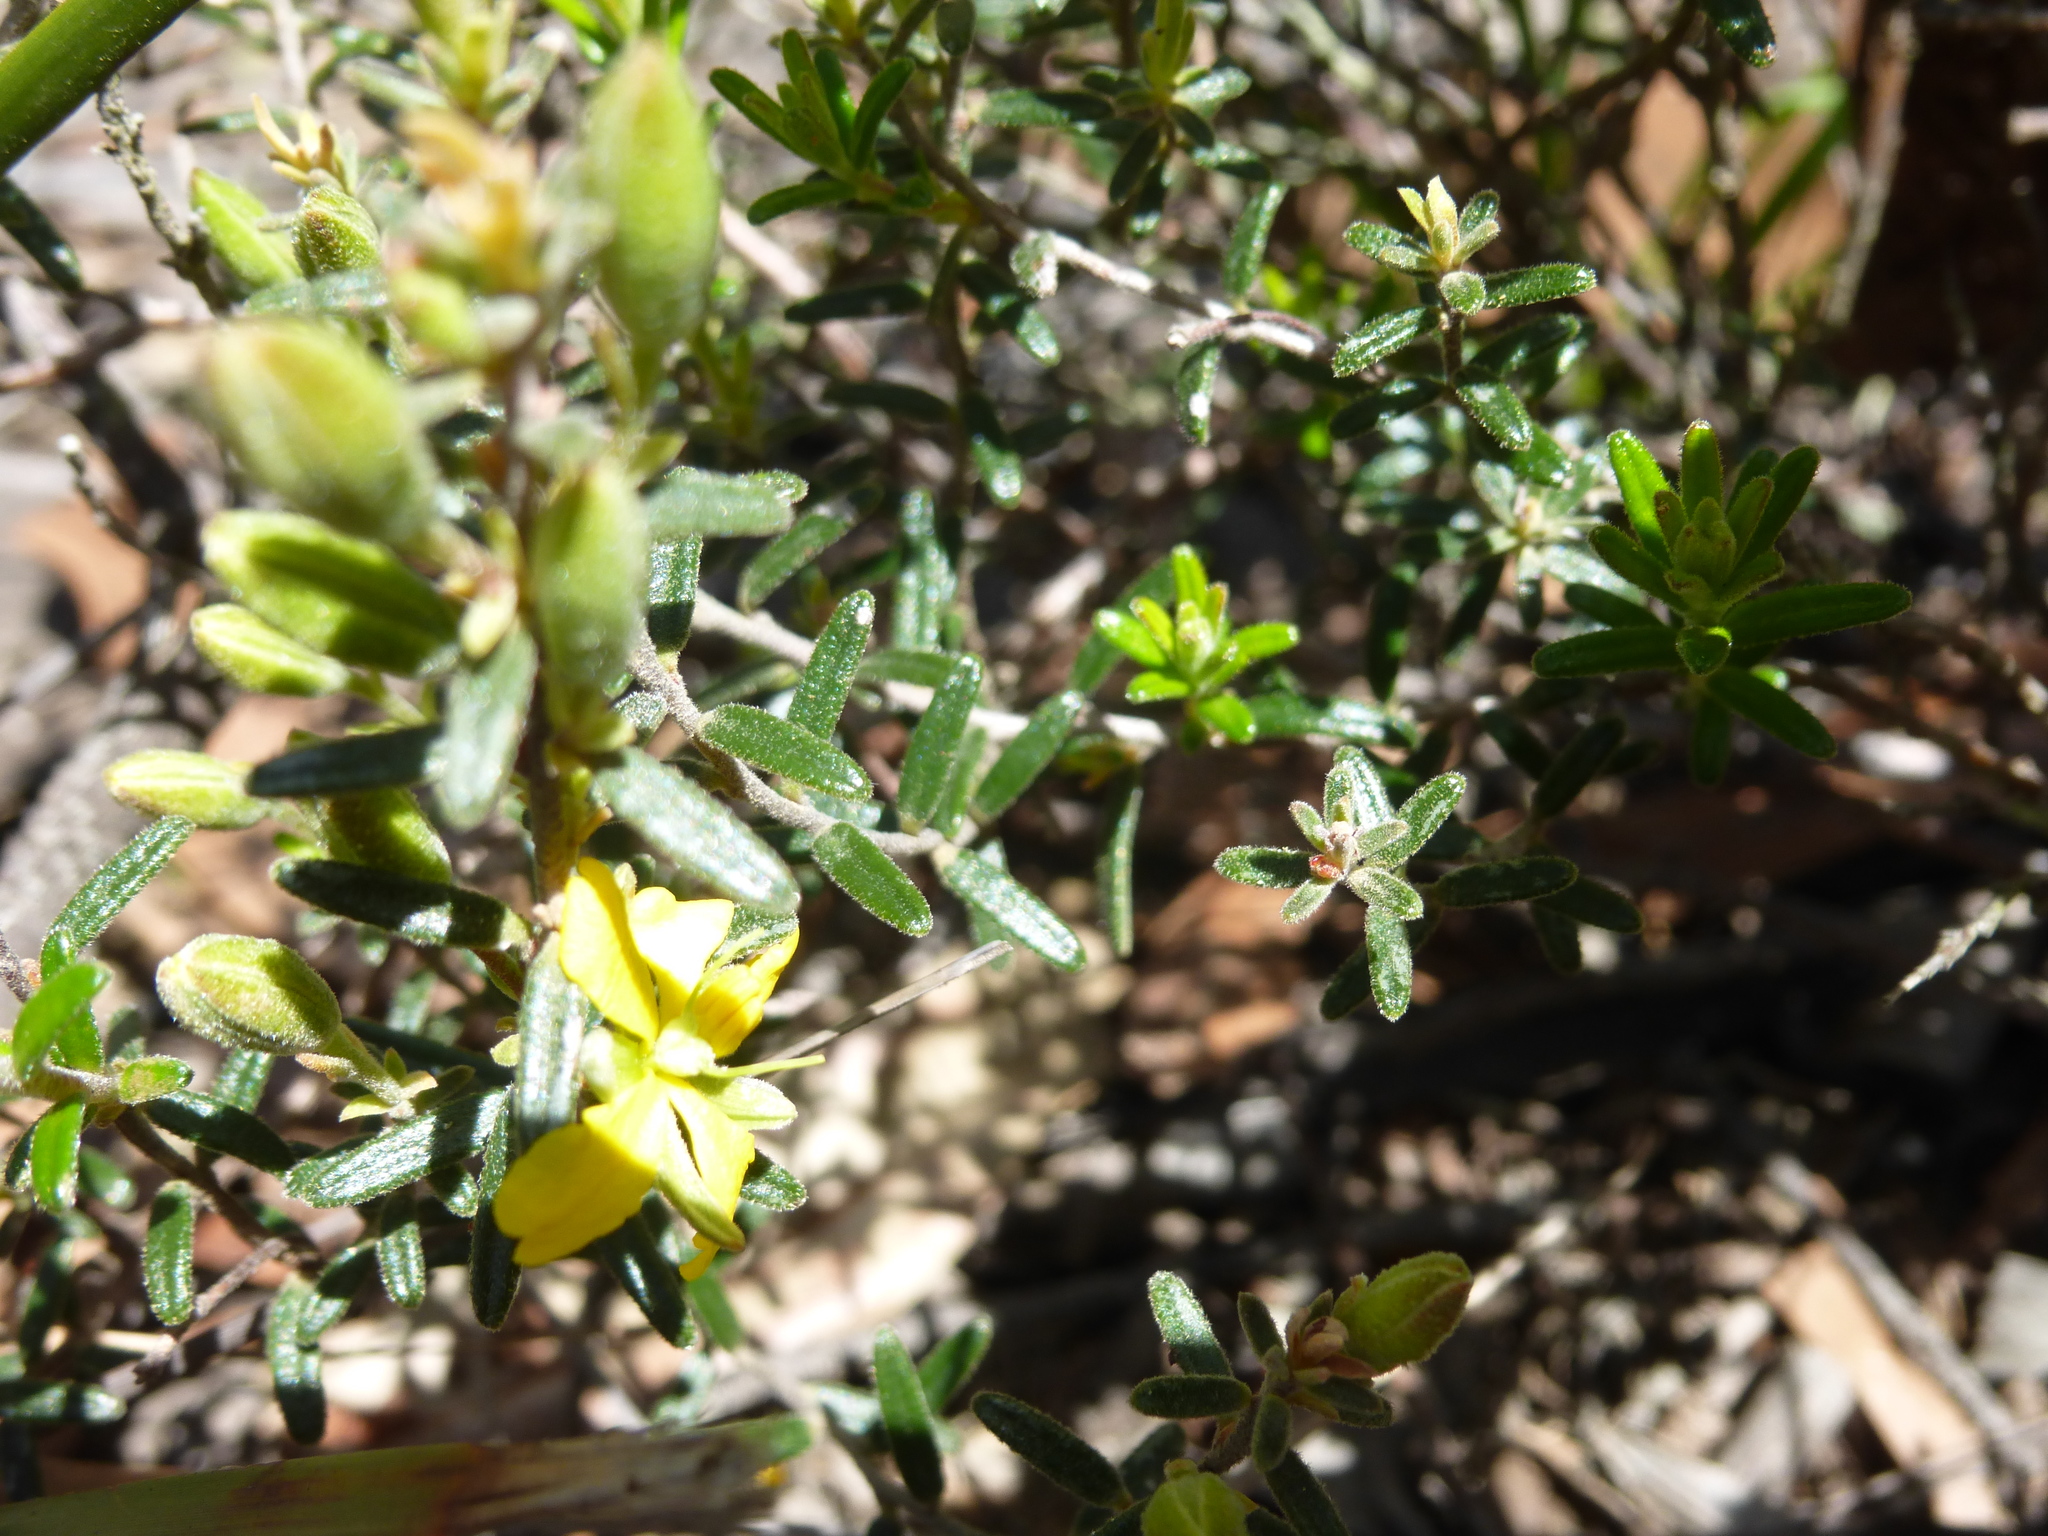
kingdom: Plantae
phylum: Tracheophyta
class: Magnoliopsida
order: Dilleniales
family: Dilleniaceae
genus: Hibbertia
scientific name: Hibbertia australis
